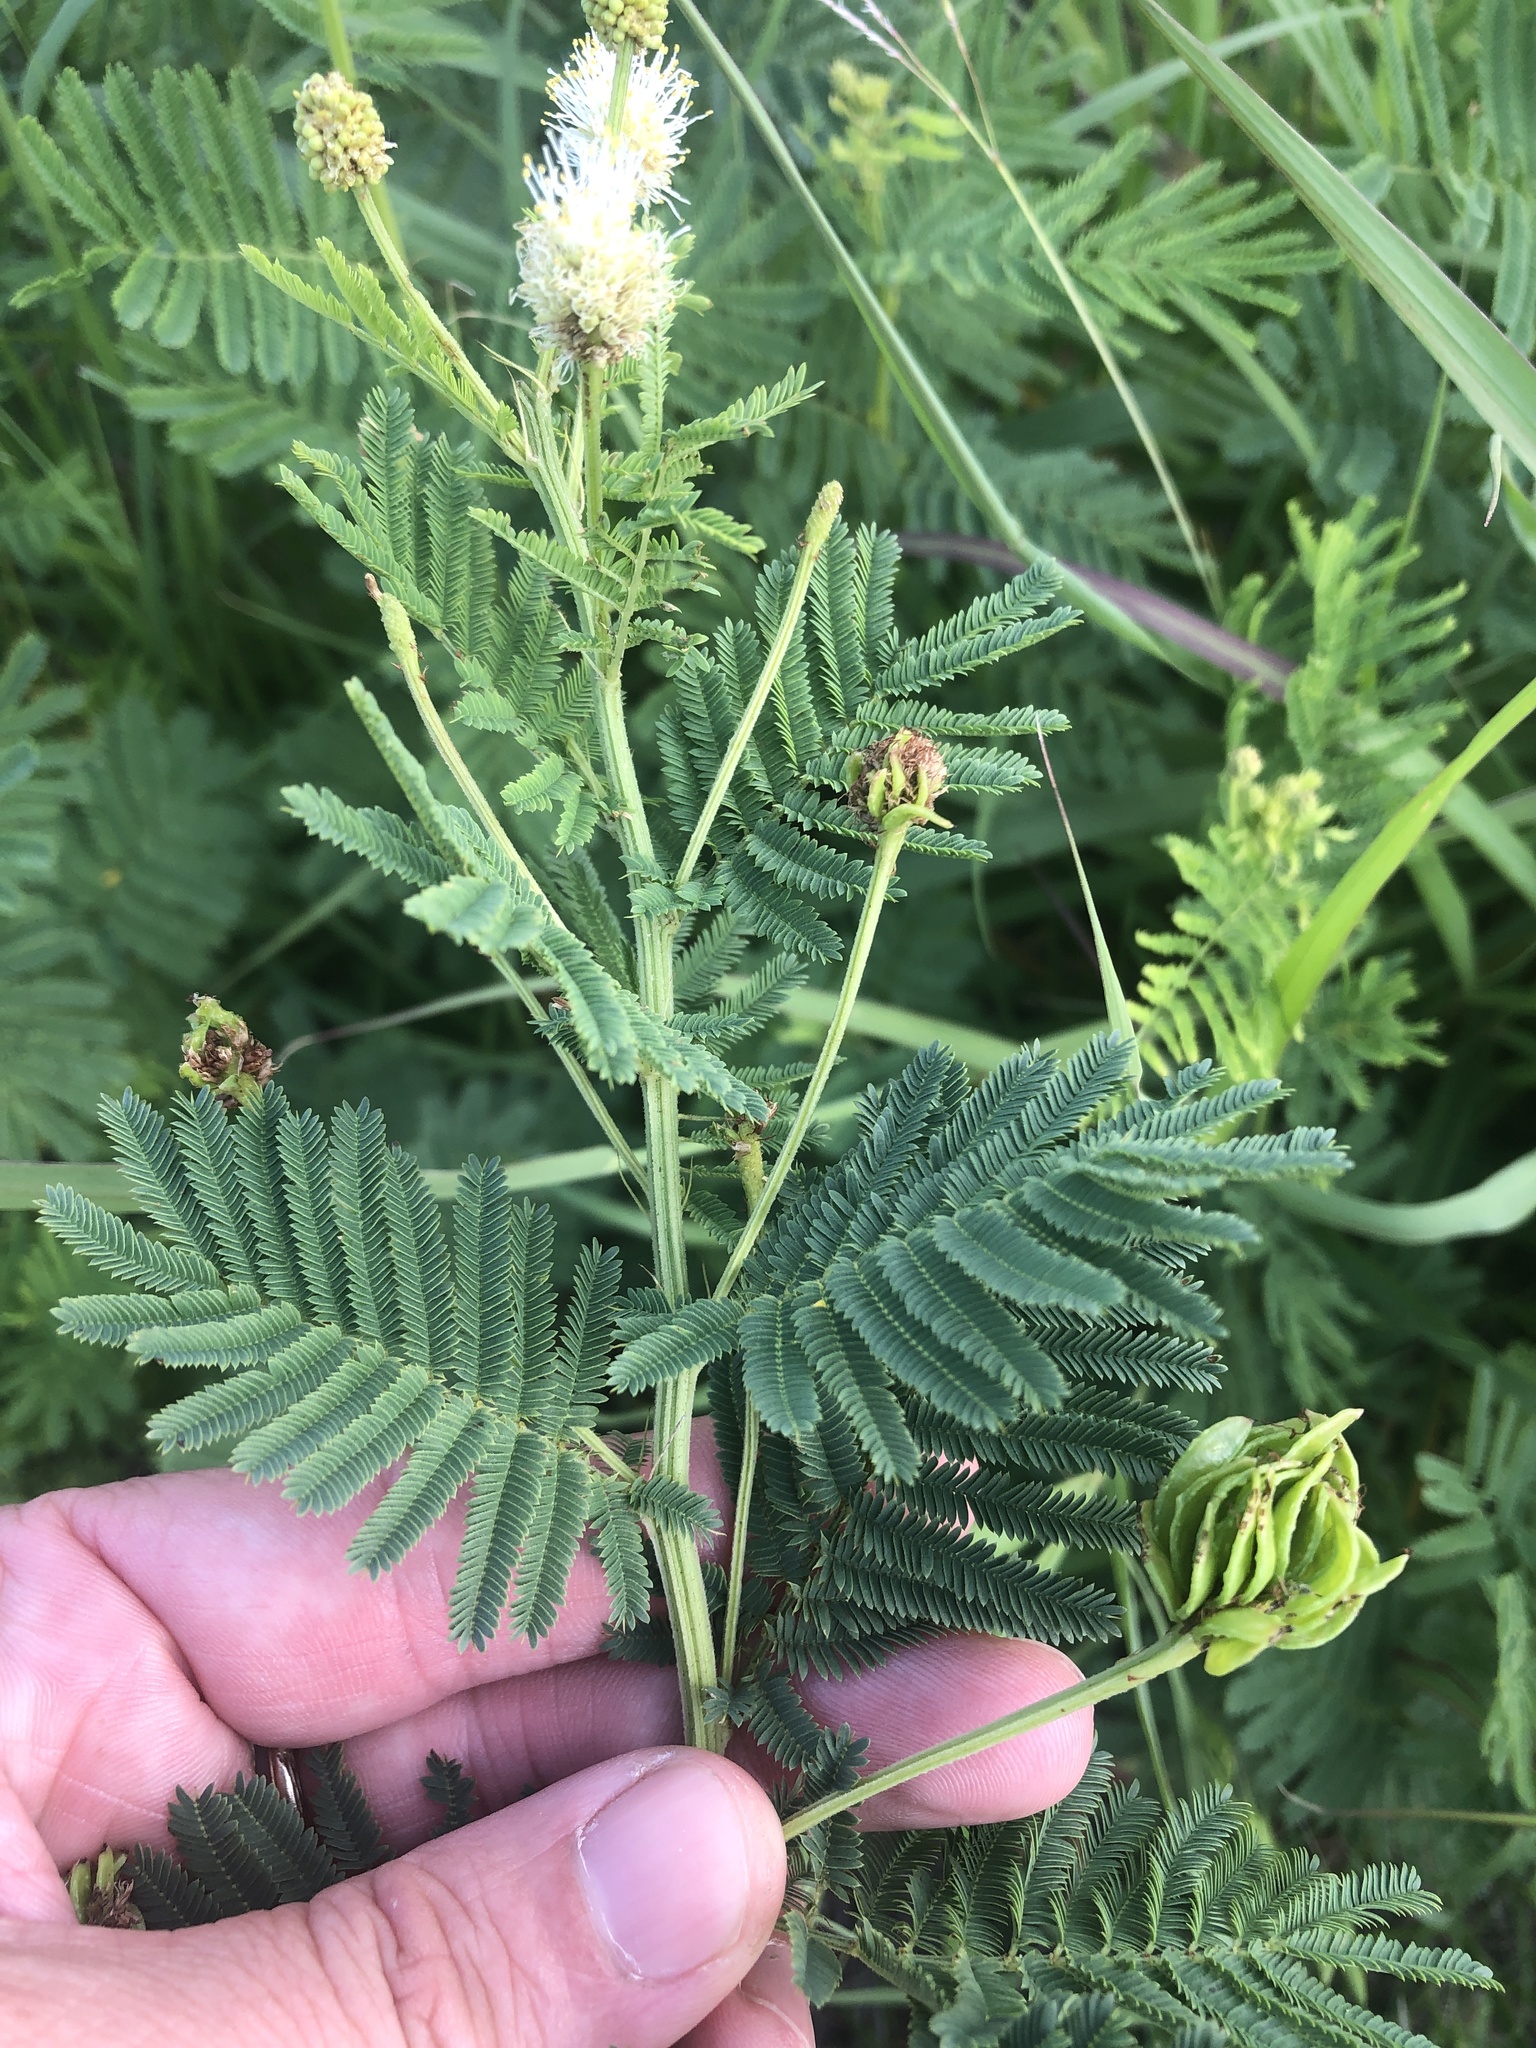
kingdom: Plantae
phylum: Tracheophyta
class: Magnoliopsida
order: Fabales
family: Fabaceae
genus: Desmanthus
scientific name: Desmanthus illinoensis
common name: Illinois bundle-flower
